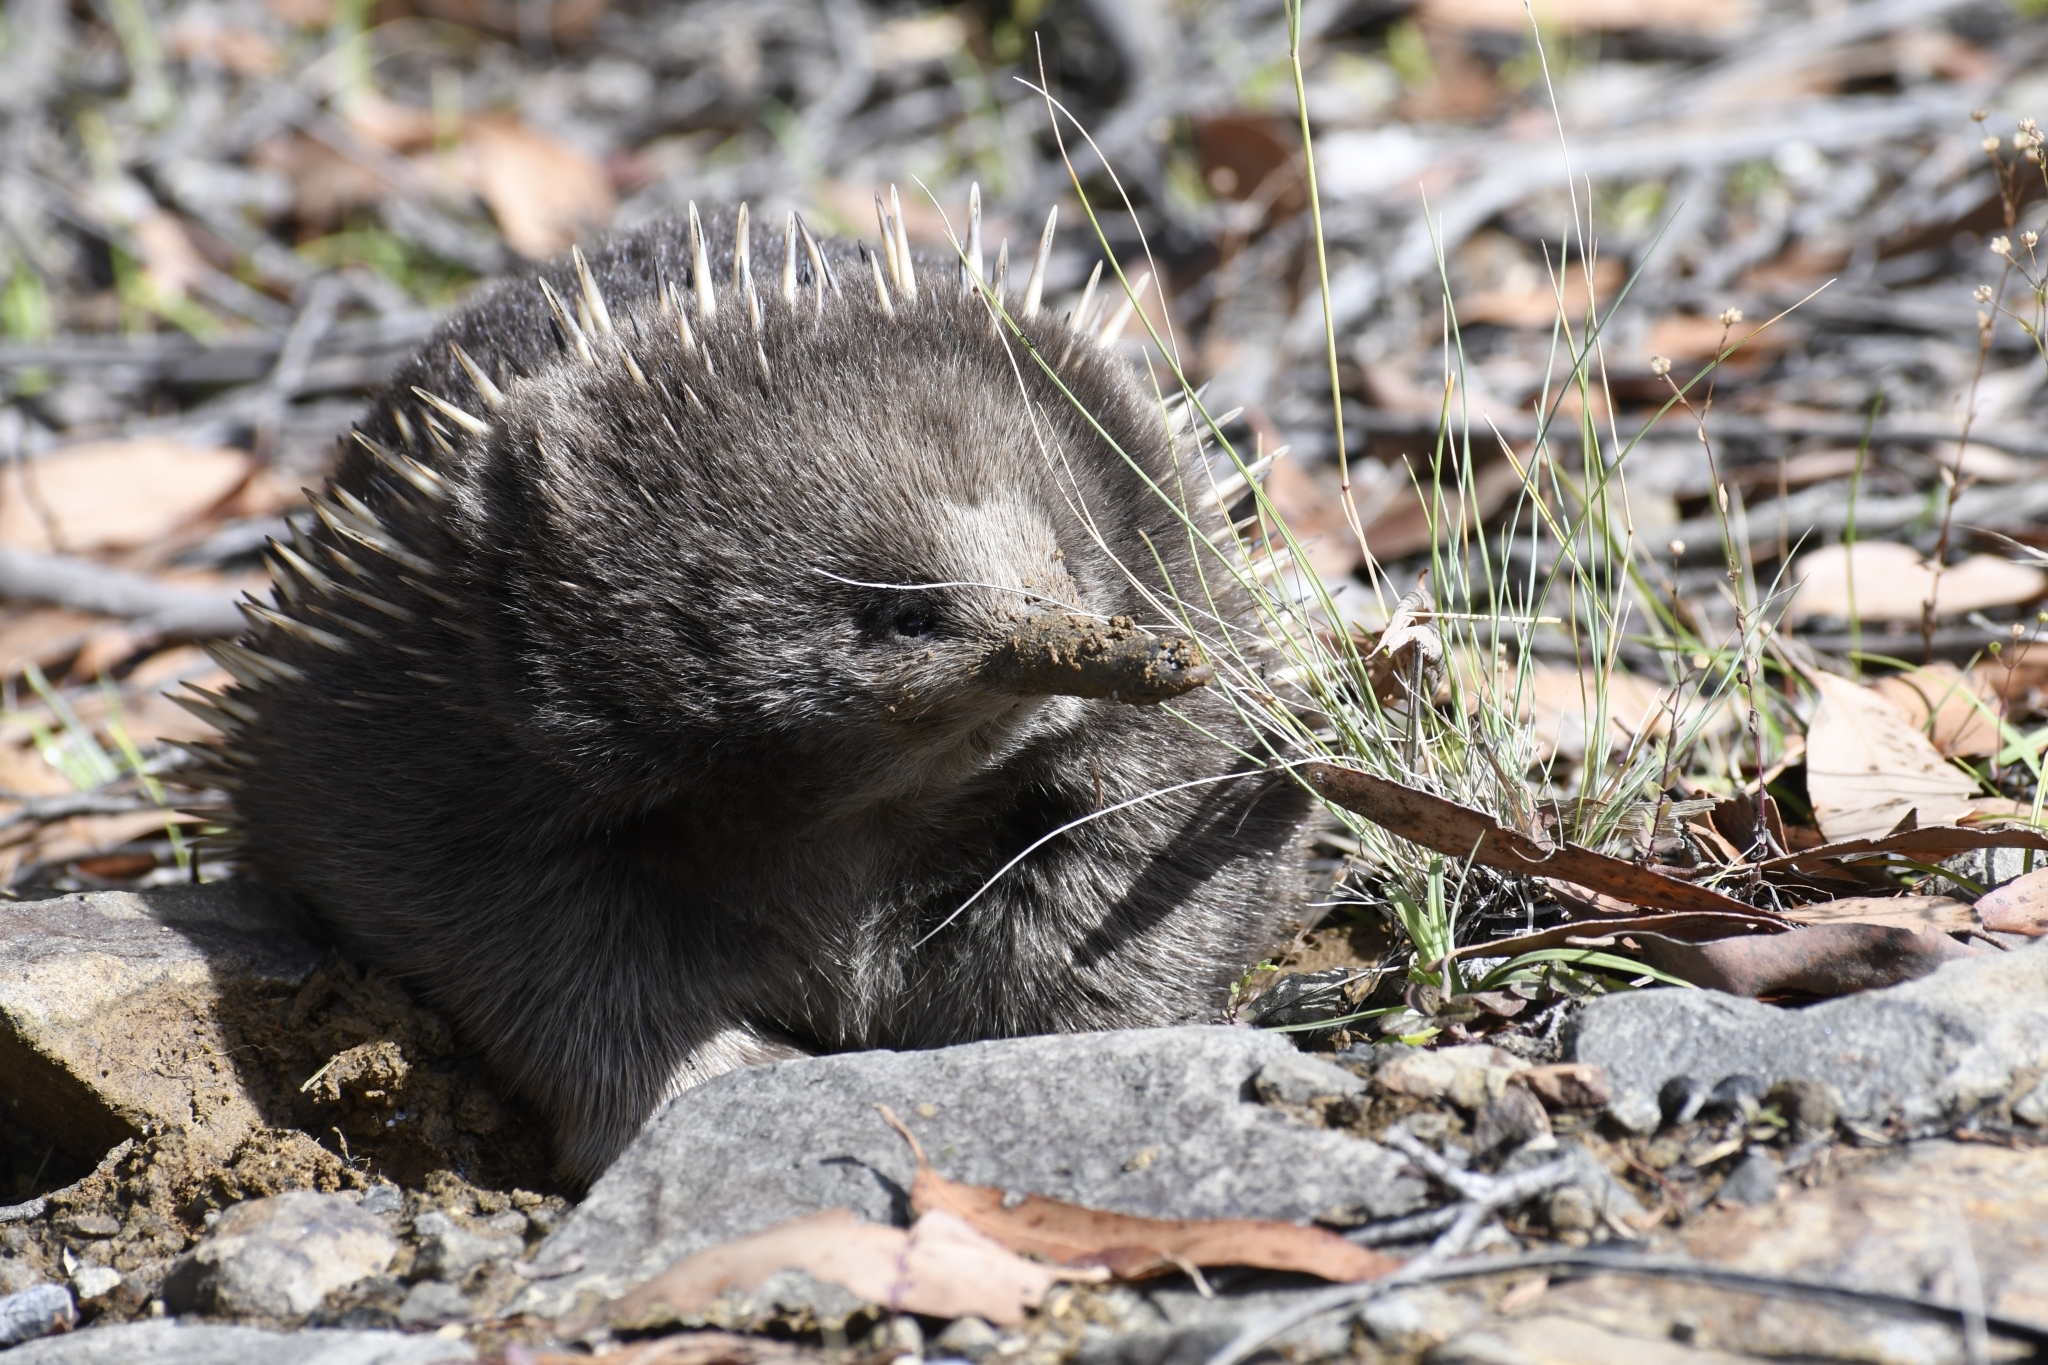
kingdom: Animalia
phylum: Chordata
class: Mammalia
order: Monotremata
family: Tachyglossidae
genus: Tachyglossus
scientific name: Tachyglossus aculeatus
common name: Short-beaked echidna
